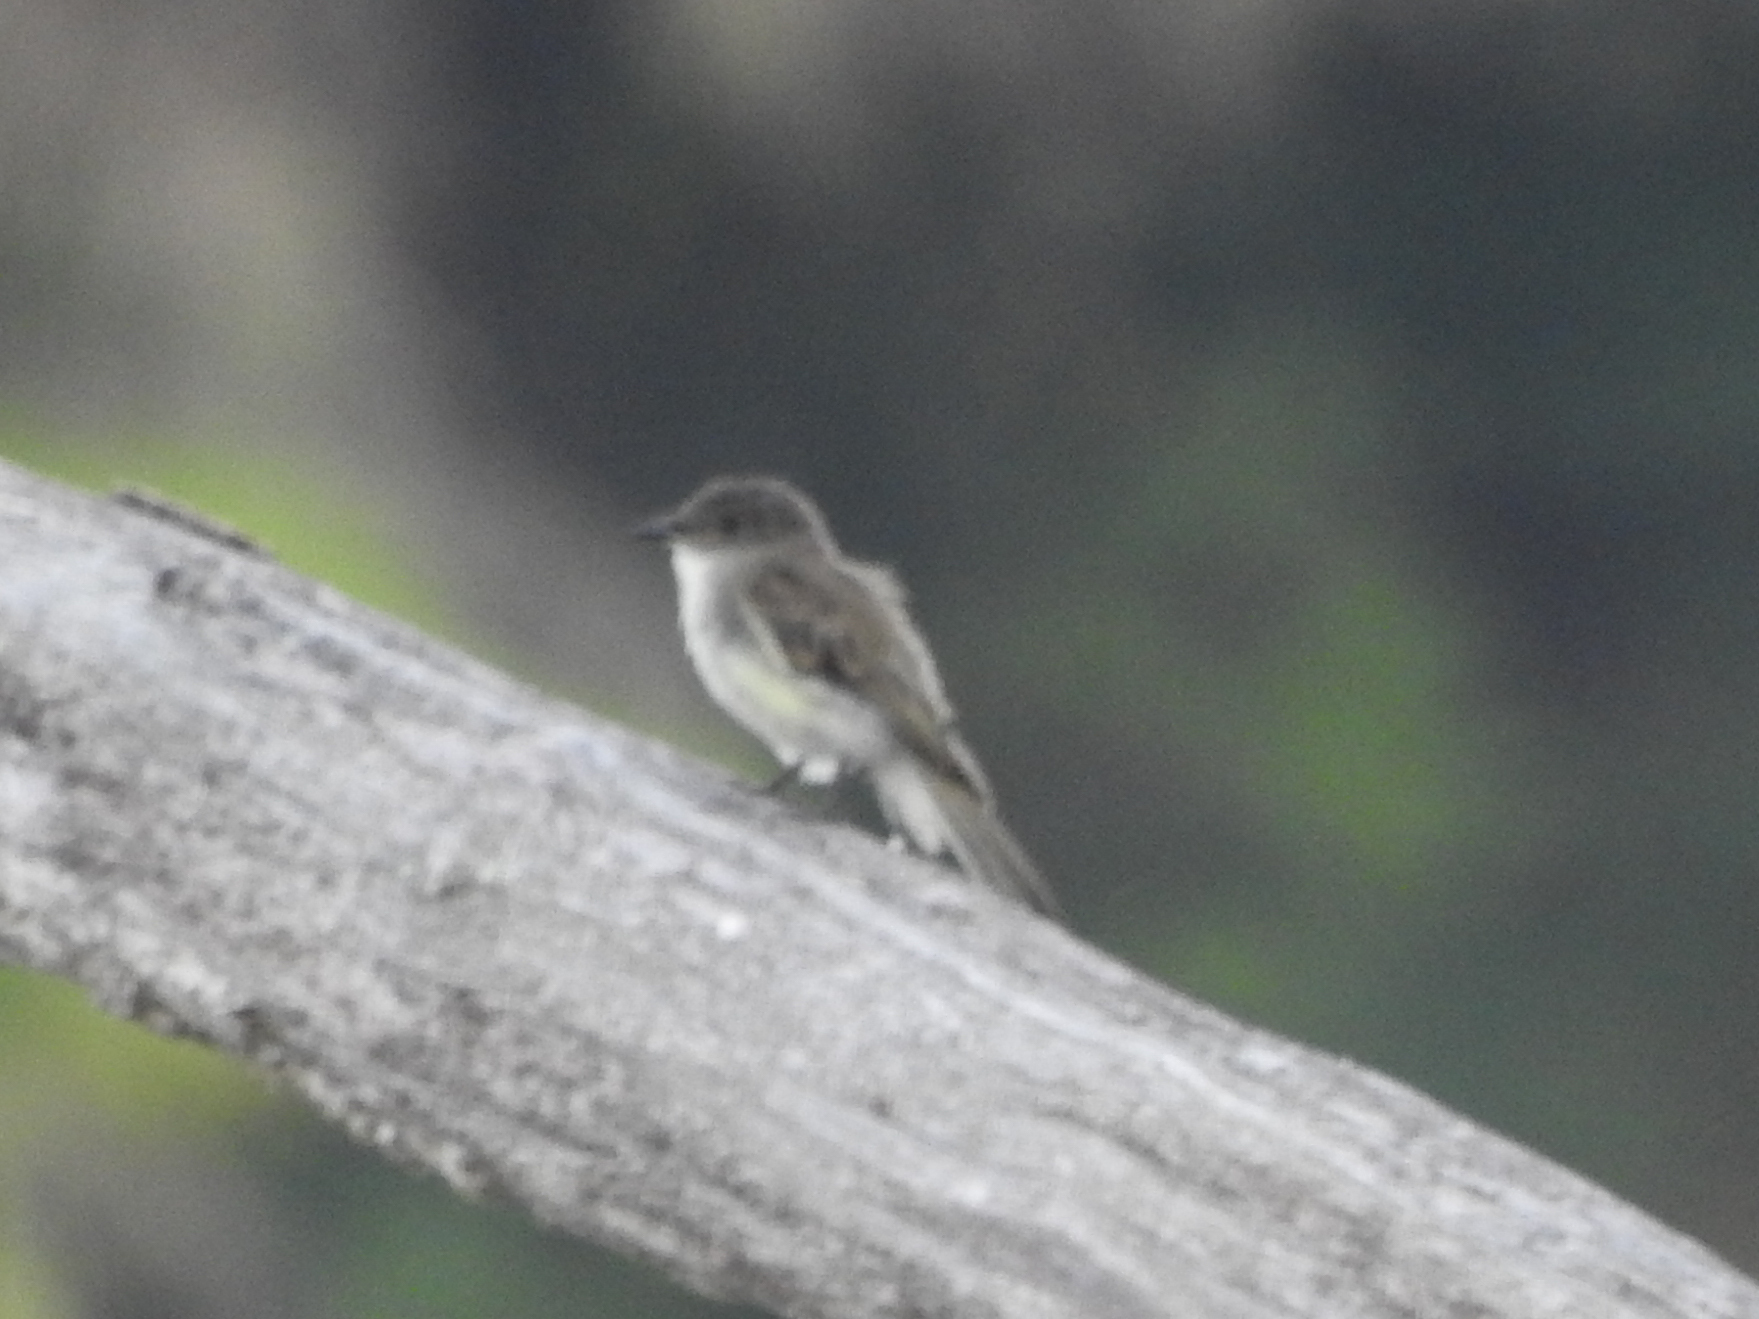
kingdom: Animalia
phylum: Chordata
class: Aves
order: Passeriformes
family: Tyrannidae
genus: Sayornis
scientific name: Sayornis phoebe
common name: Eastern phoebe
